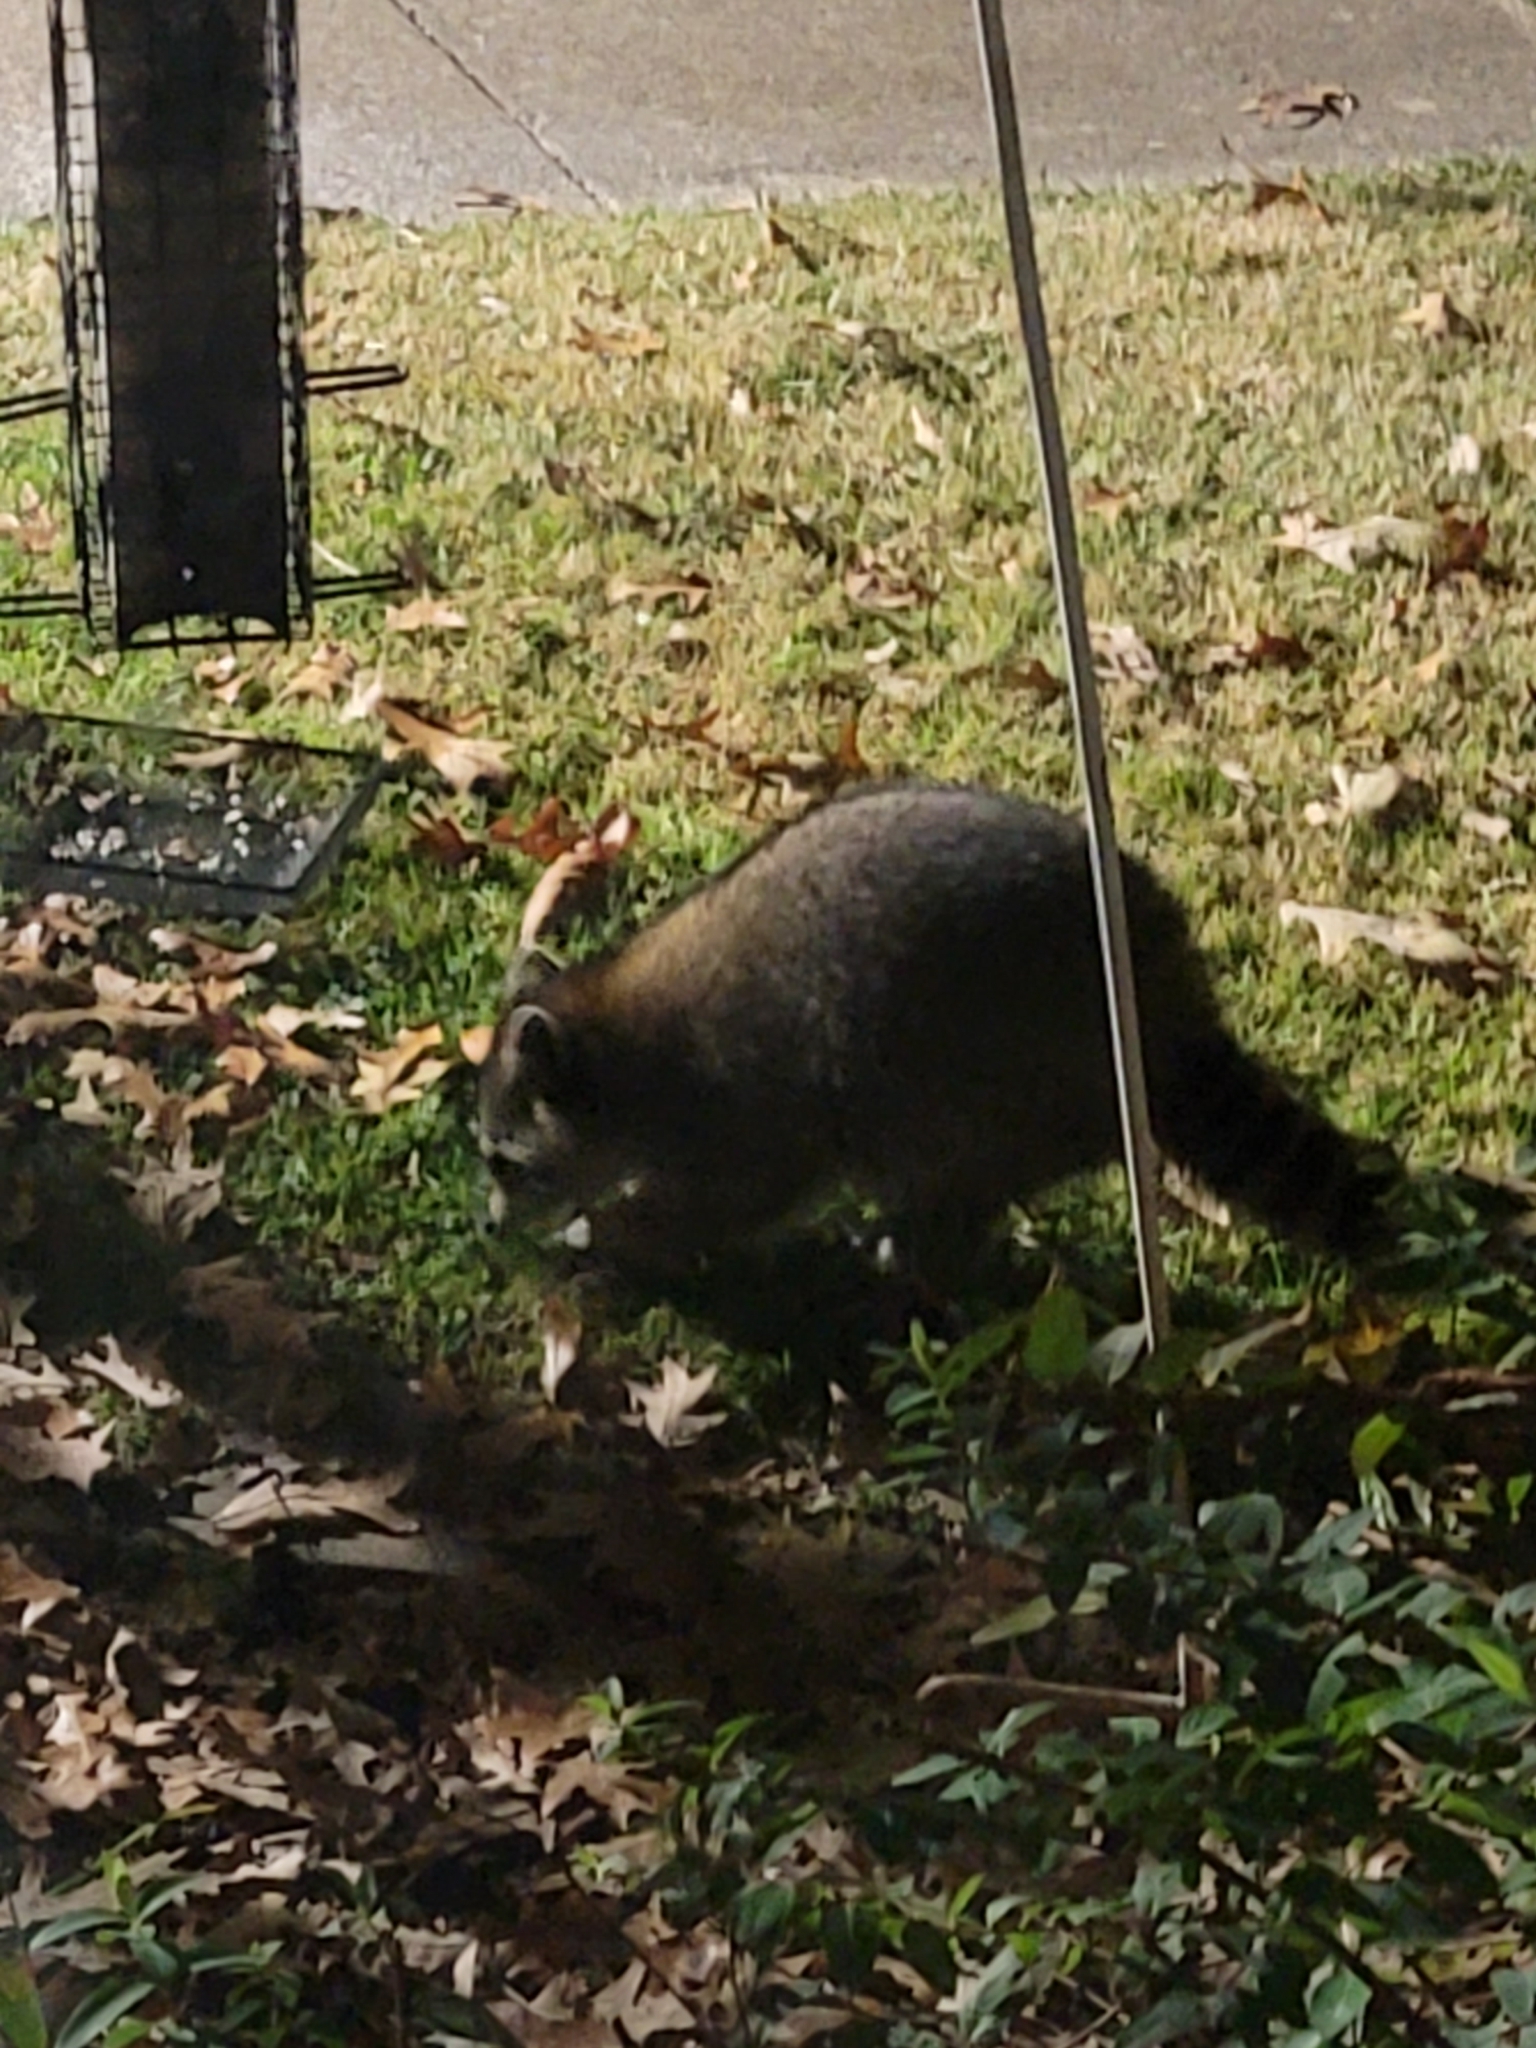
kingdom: Animalia
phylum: Chordata
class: Mammalia
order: Carnivora
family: Procyonidae
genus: Procyon
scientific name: Procyon lotor
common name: Raccoon
